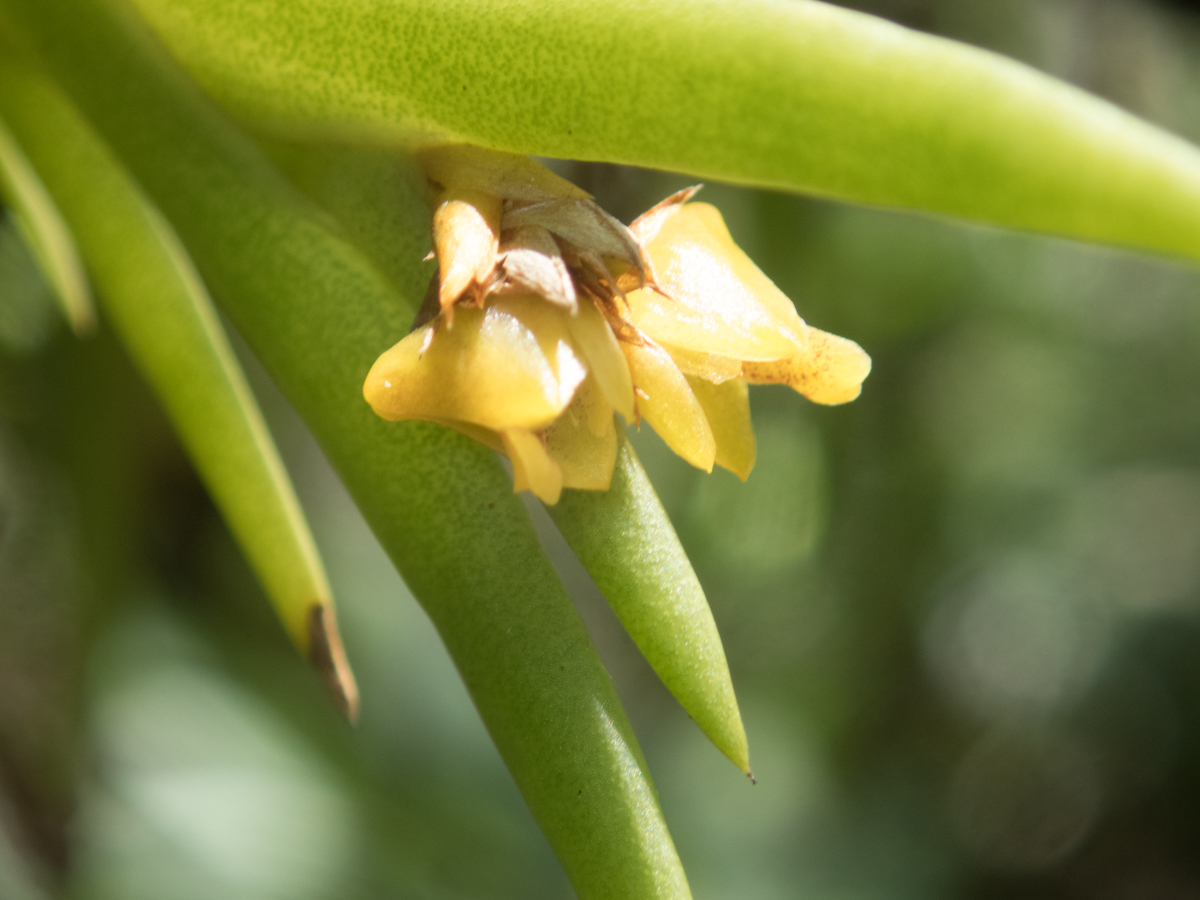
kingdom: Plantae
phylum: Tracheophyta
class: Liliopsida
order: Asparagales
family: Orchidaceae
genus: Oxystophyllum
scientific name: Oxystophyllum carnosum
